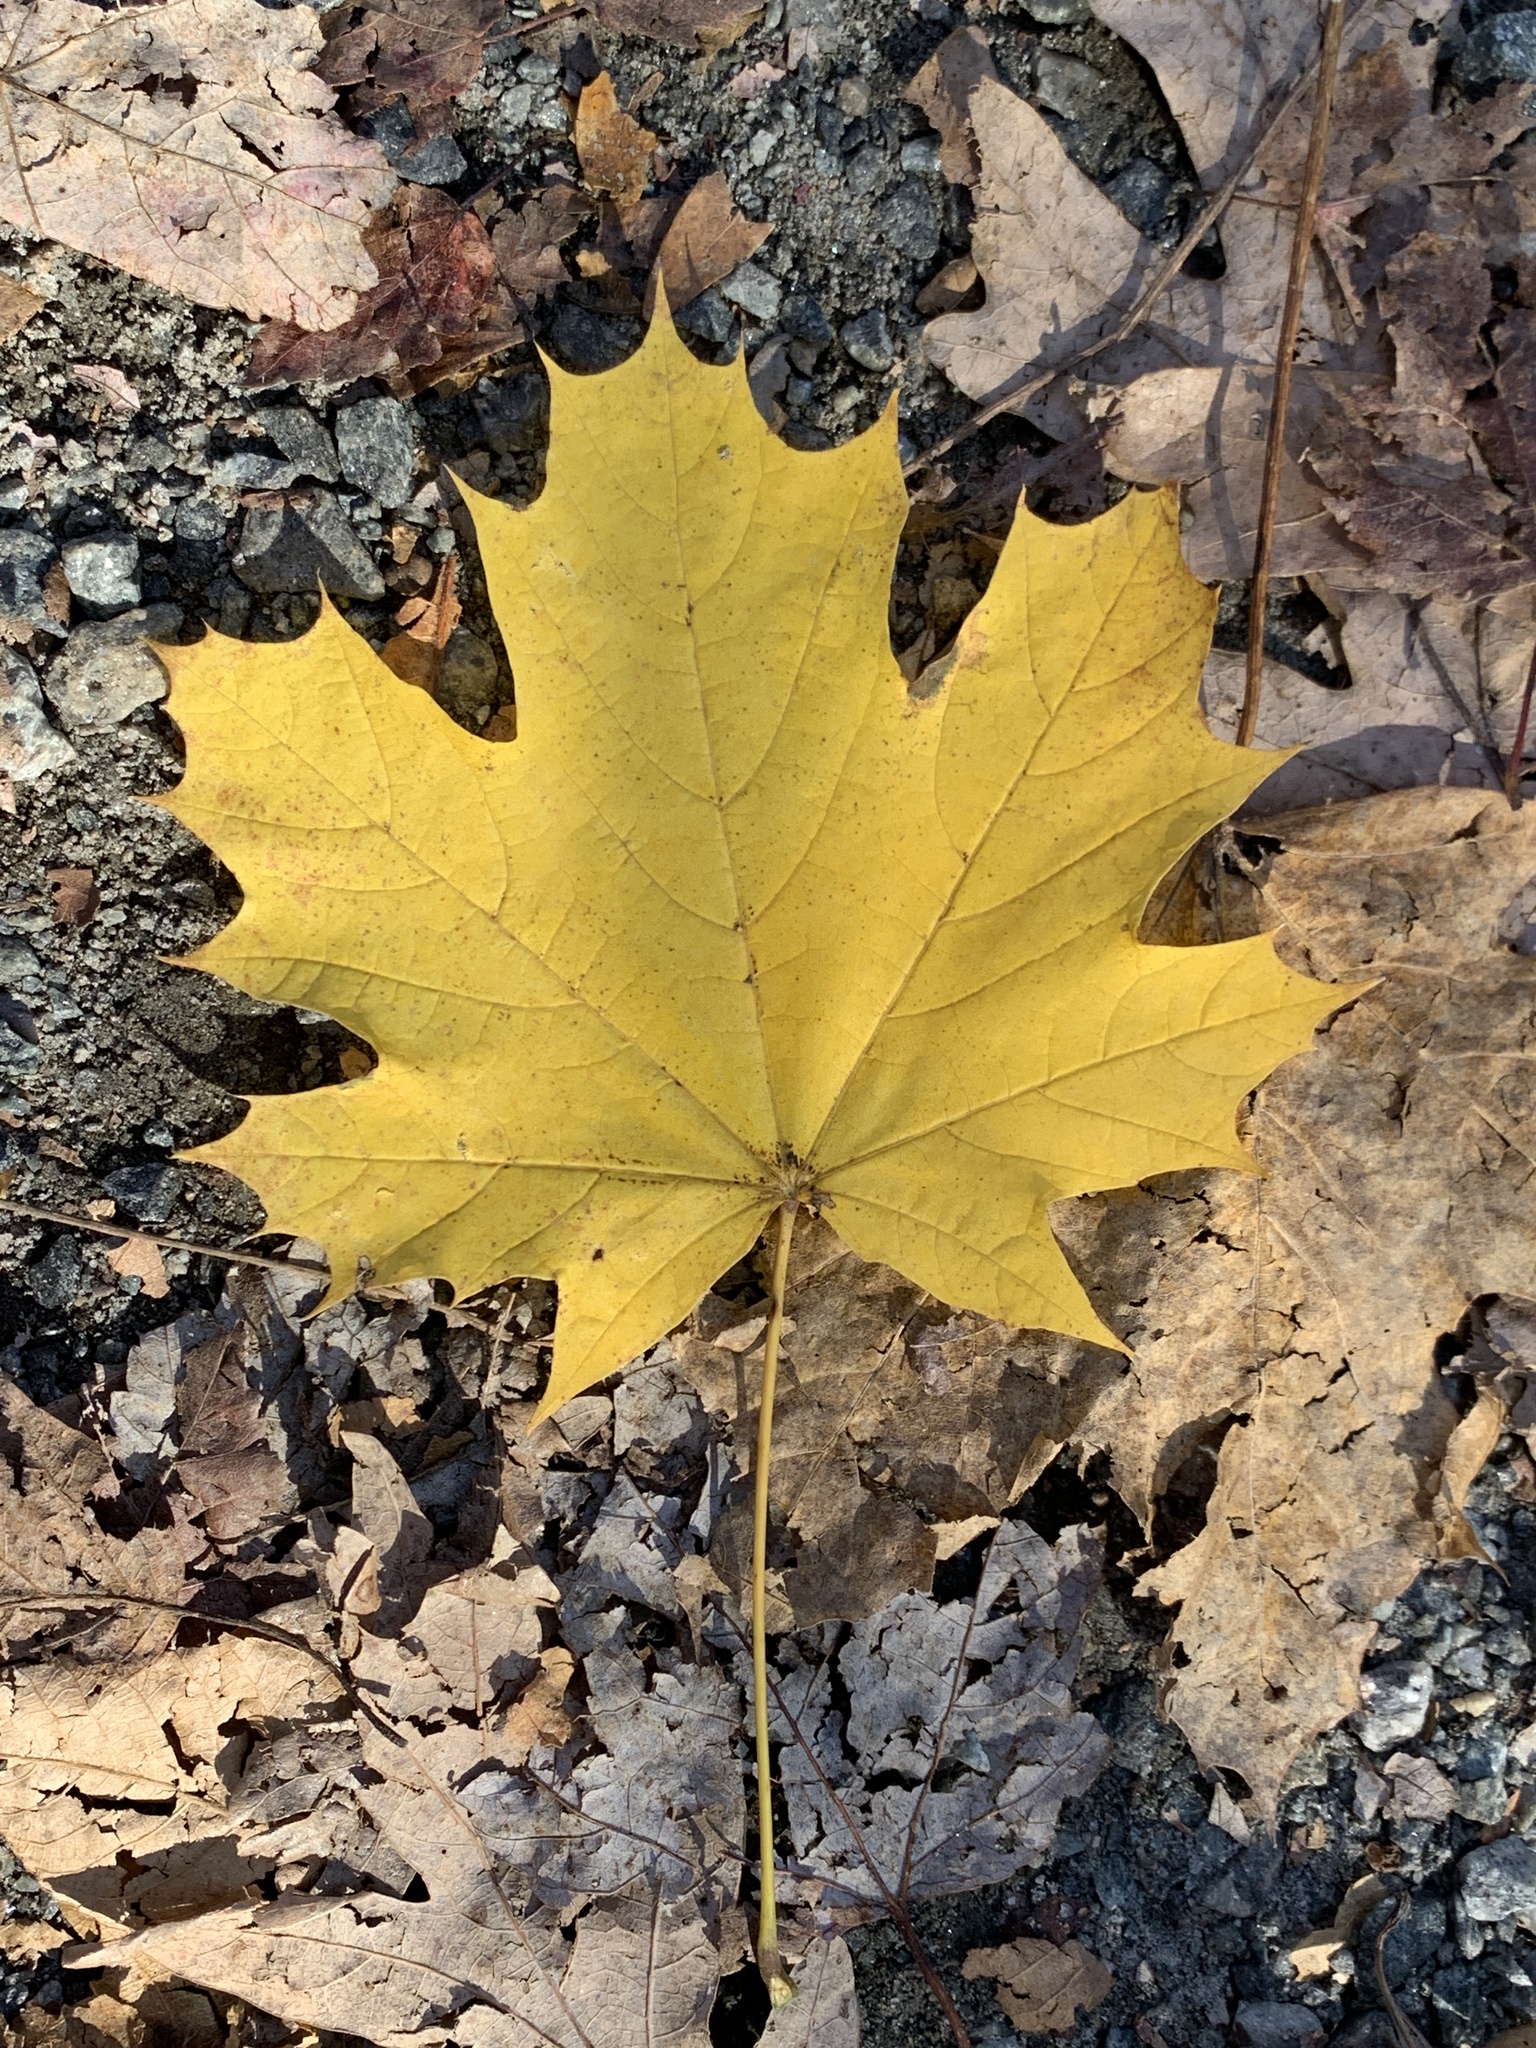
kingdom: Plantae
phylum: Tracheophyta
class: Magnoliopsida
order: Sapindales
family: Sapindaceae
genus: Acer
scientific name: Acer platanoides
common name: Norway maple
